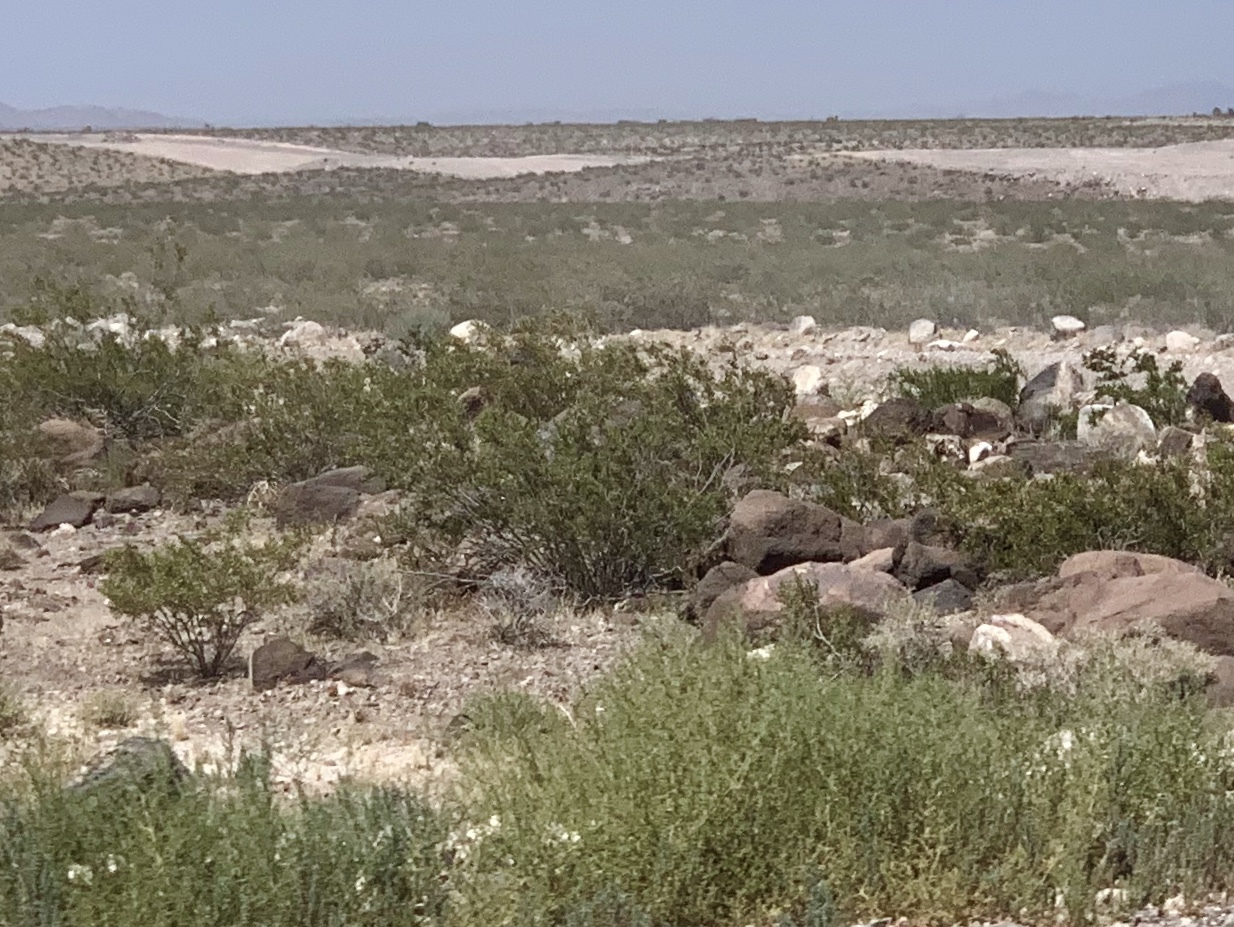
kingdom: Plantae
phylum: Tracheophyta
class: Magnoliopsida
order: Zygophyllales
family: Zygophyllaceae
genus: Larrea
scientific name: Larrea tridentata
